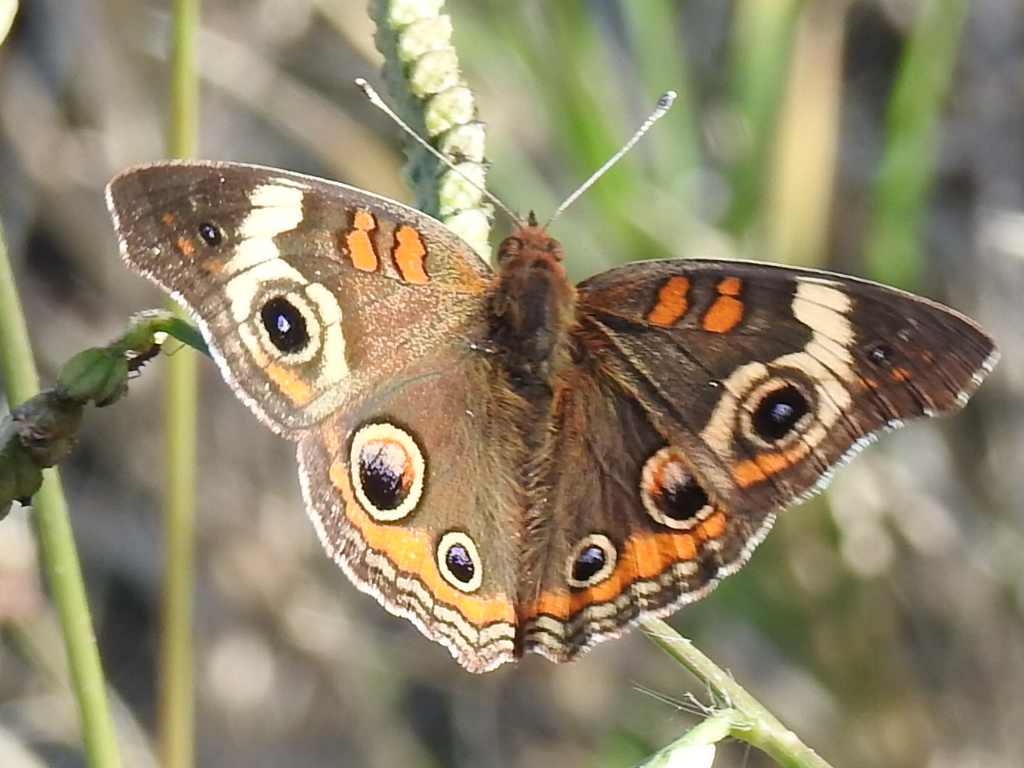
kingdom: Animalia
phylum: Arthropoda
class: Insecta
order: Lepidoptera
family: Nymphalidae
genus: Junonia
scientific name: Junonia coenia
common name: Common buckeye
